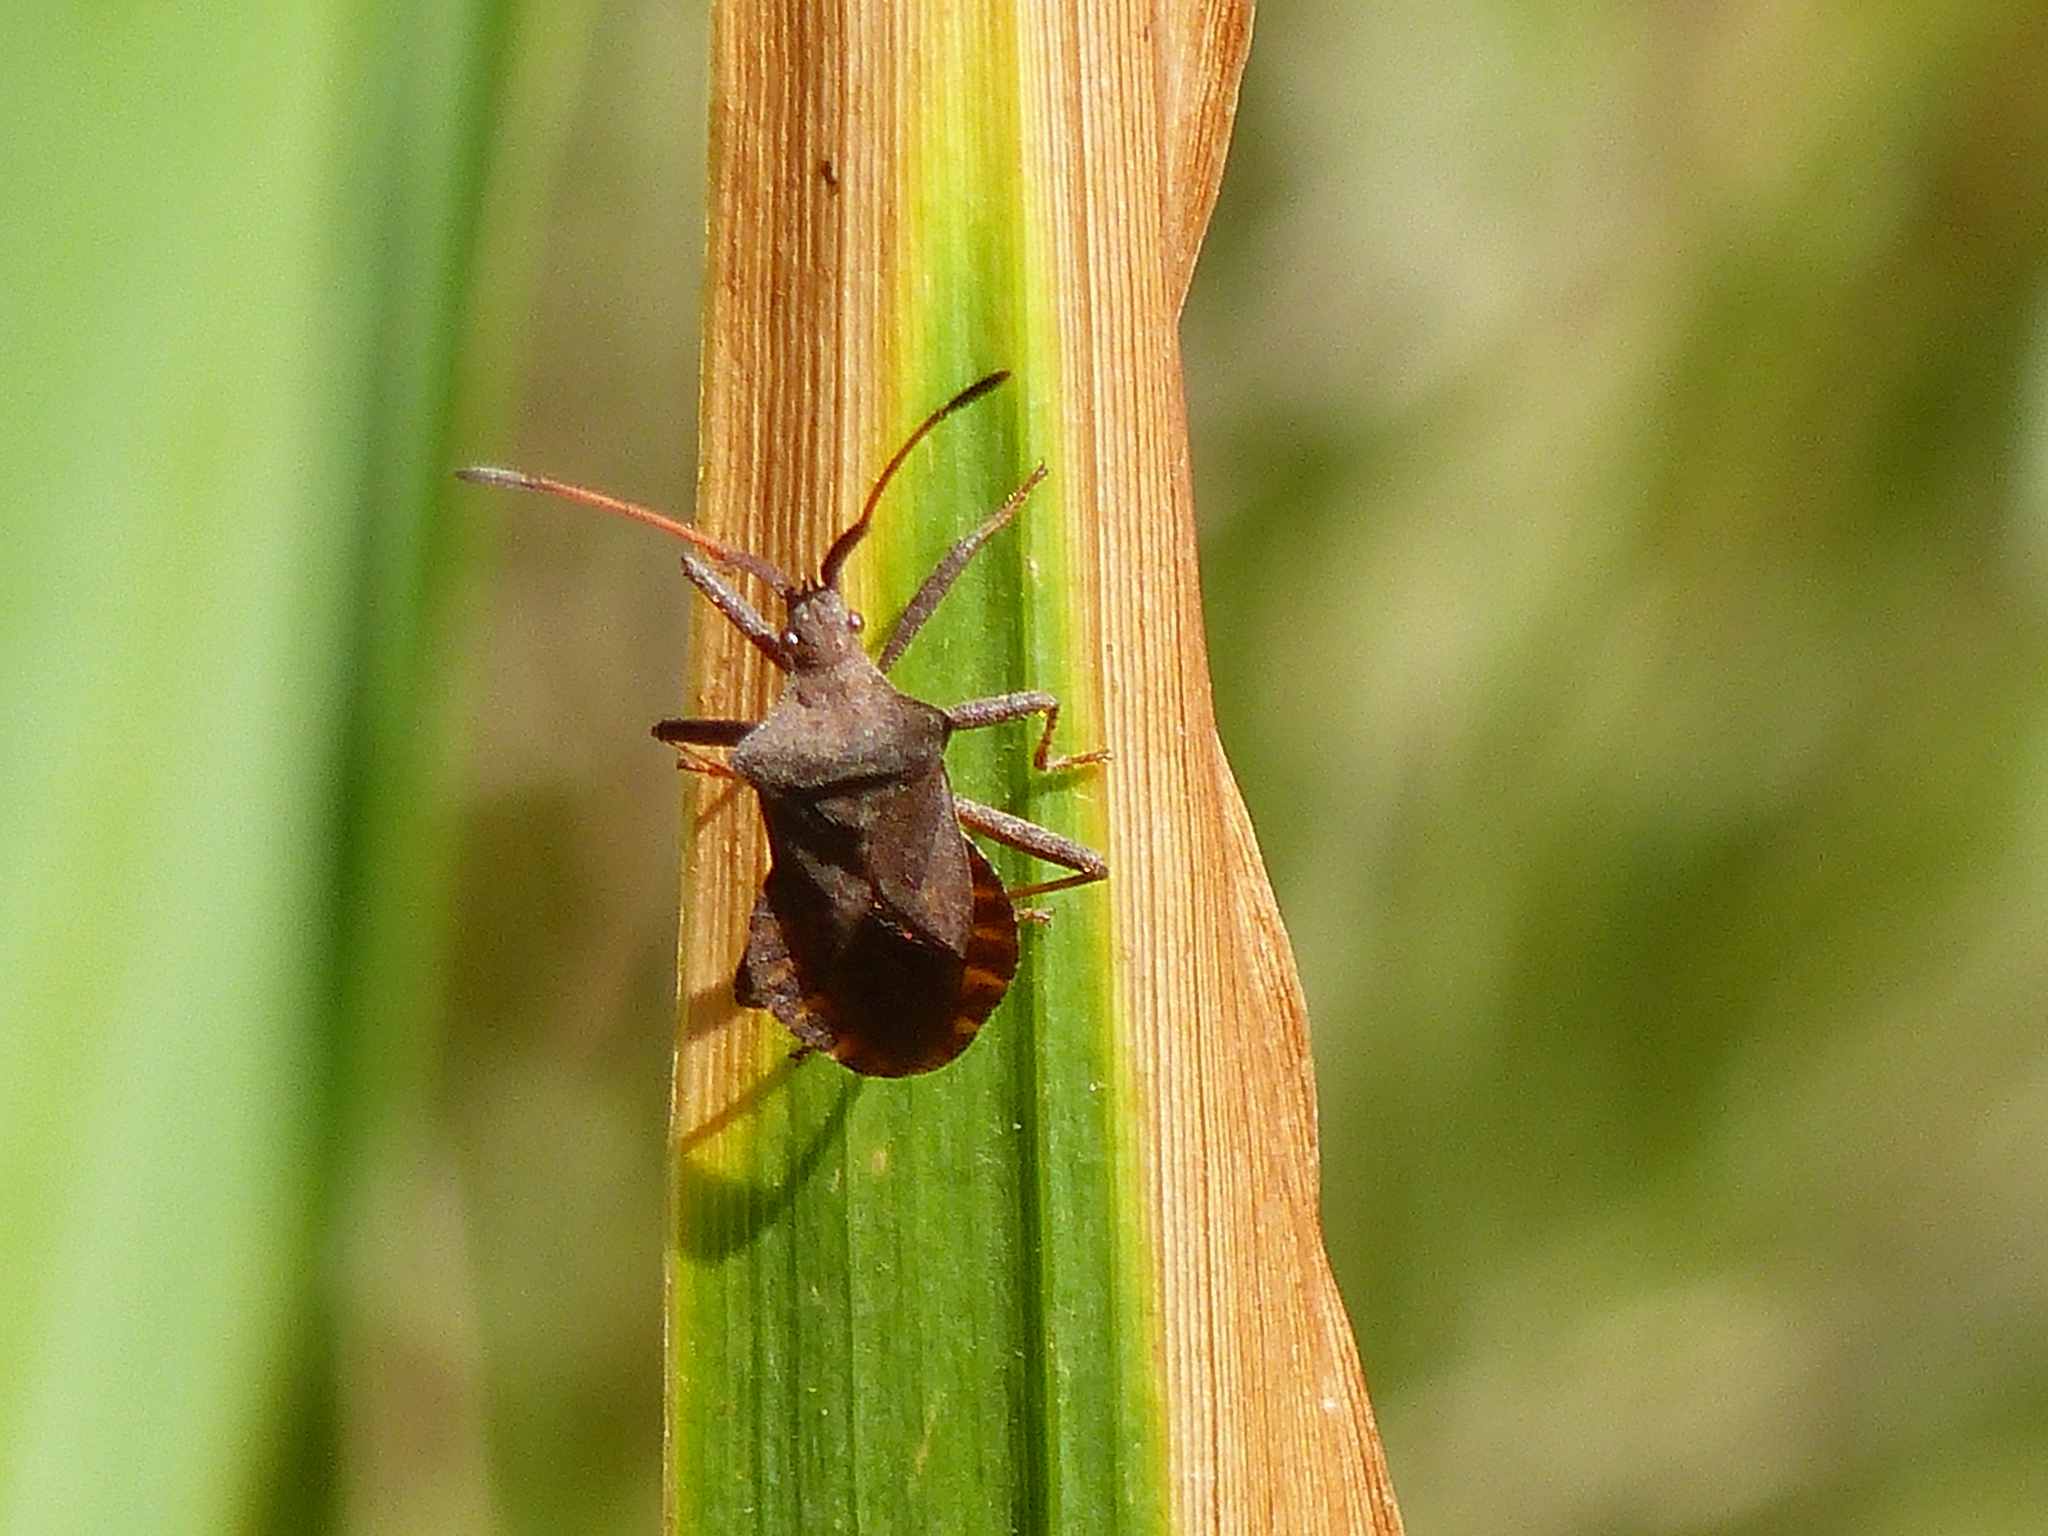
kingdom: Animalia
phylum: Arthropoda
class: Insecta
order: Hemiptera
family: Coreidae
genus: Coreus
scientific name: Coreus marginatus
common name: Dock bug
